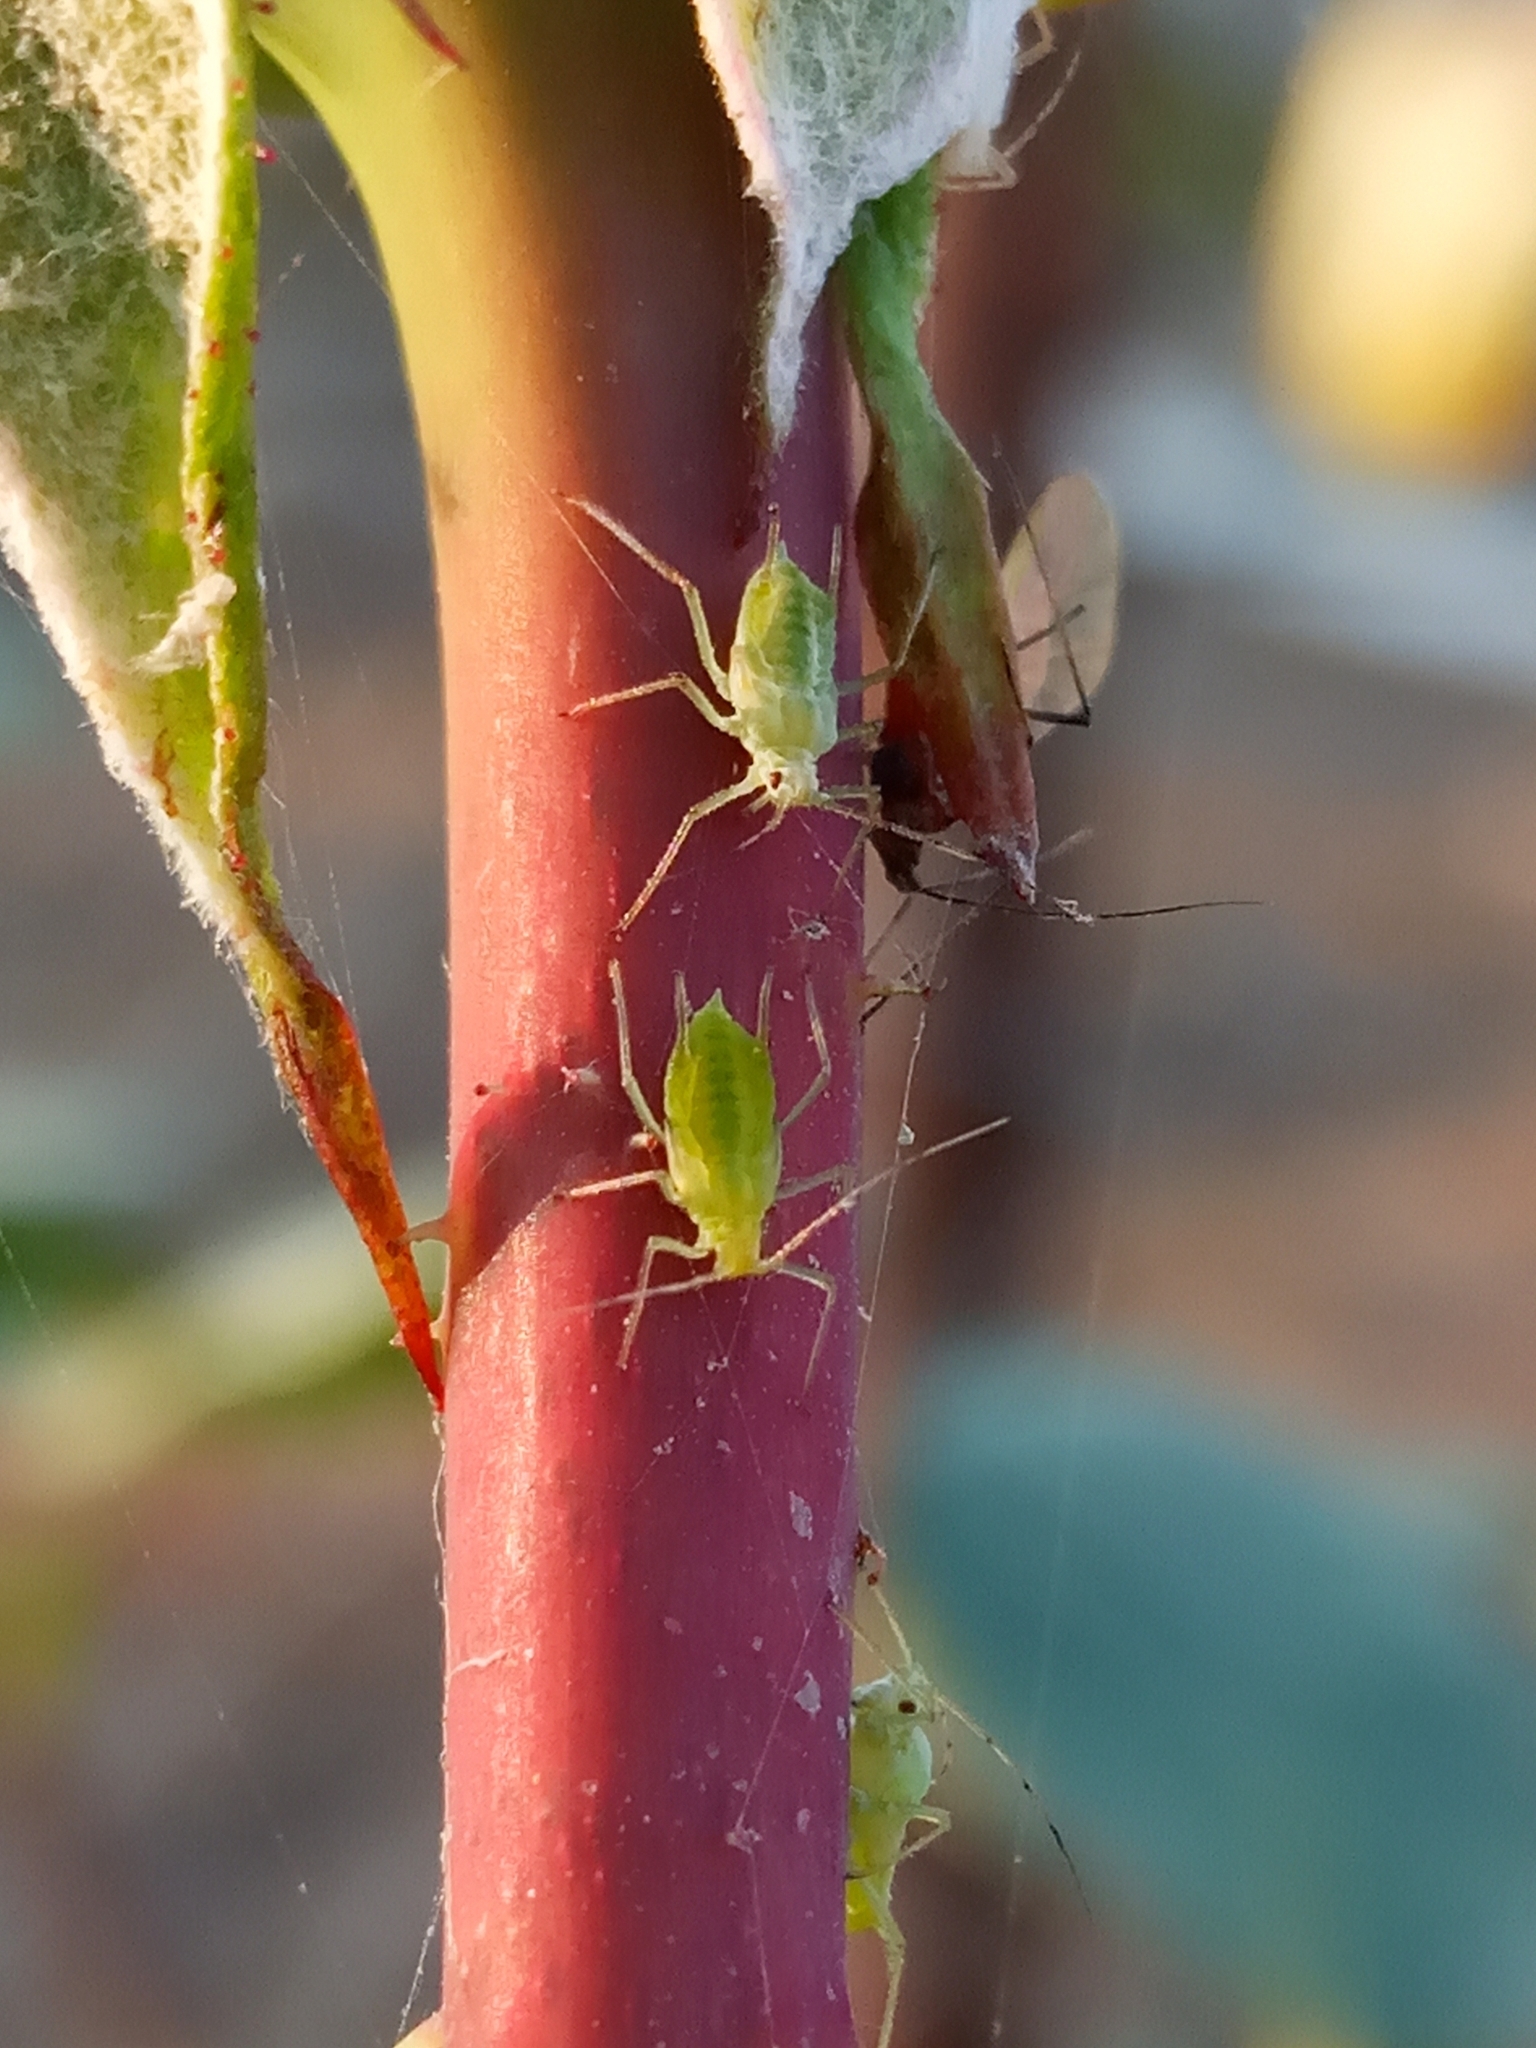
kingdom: Animalia
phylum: Arthropoda
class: Insecta
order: Hemiptera
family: Aphididae
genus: Macrosiphum
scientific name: Macrosiphum
